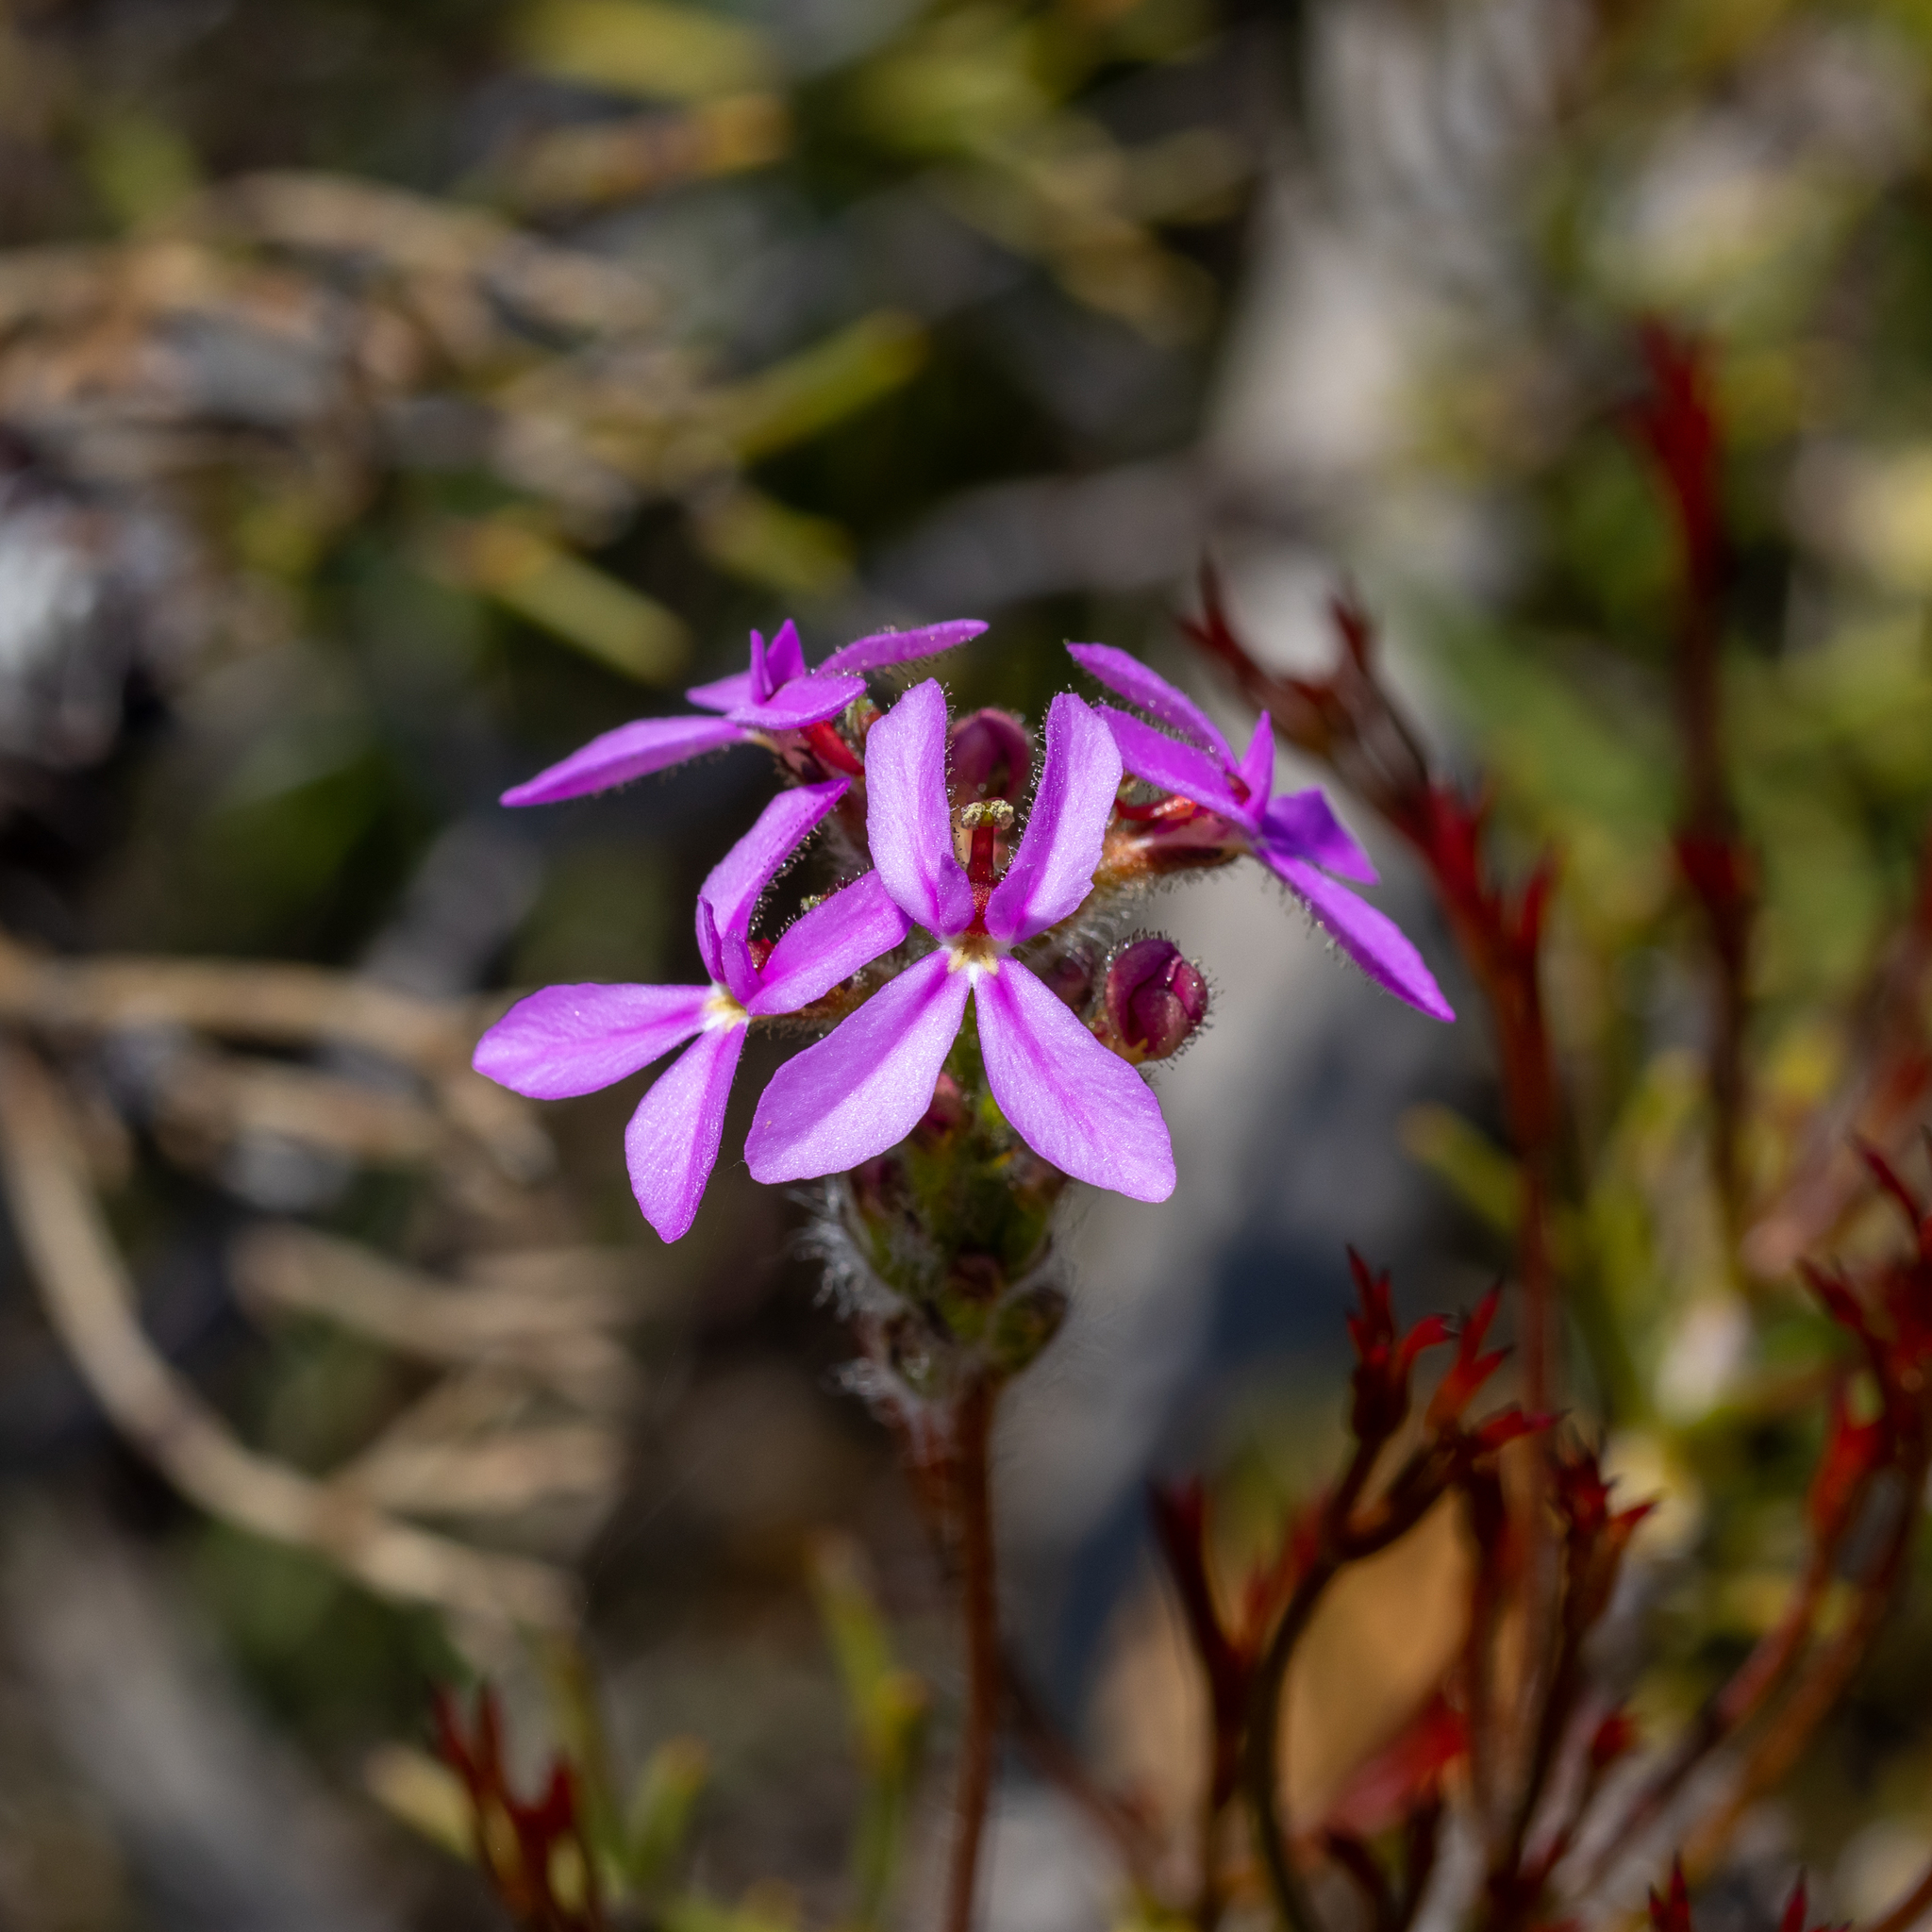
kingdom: Plantae
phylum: Tracheophyta
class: Magnoliopsida
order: Asterales
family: Stylidiaceae
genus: Stylidium
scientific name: Stylidium hirsutum
